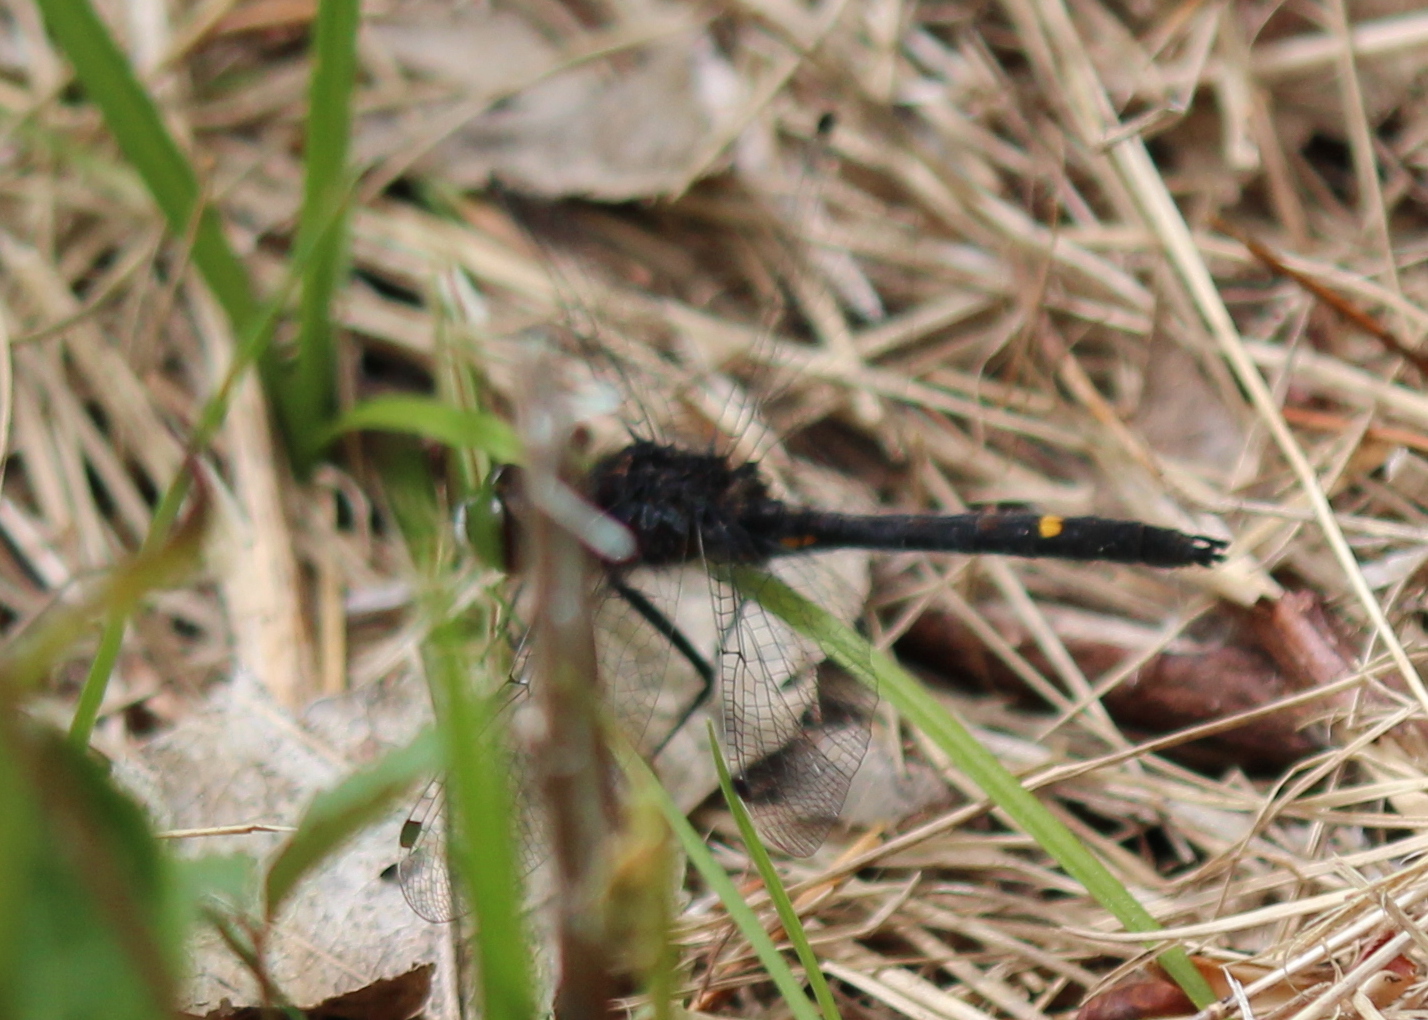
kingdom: Animalia
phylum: Arthropoda
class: Insecta
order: Odonata
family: Libellulidae
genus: Leucorrhinia
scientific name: Leucorrhinia intacta
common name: Dot-tailed whiteface
